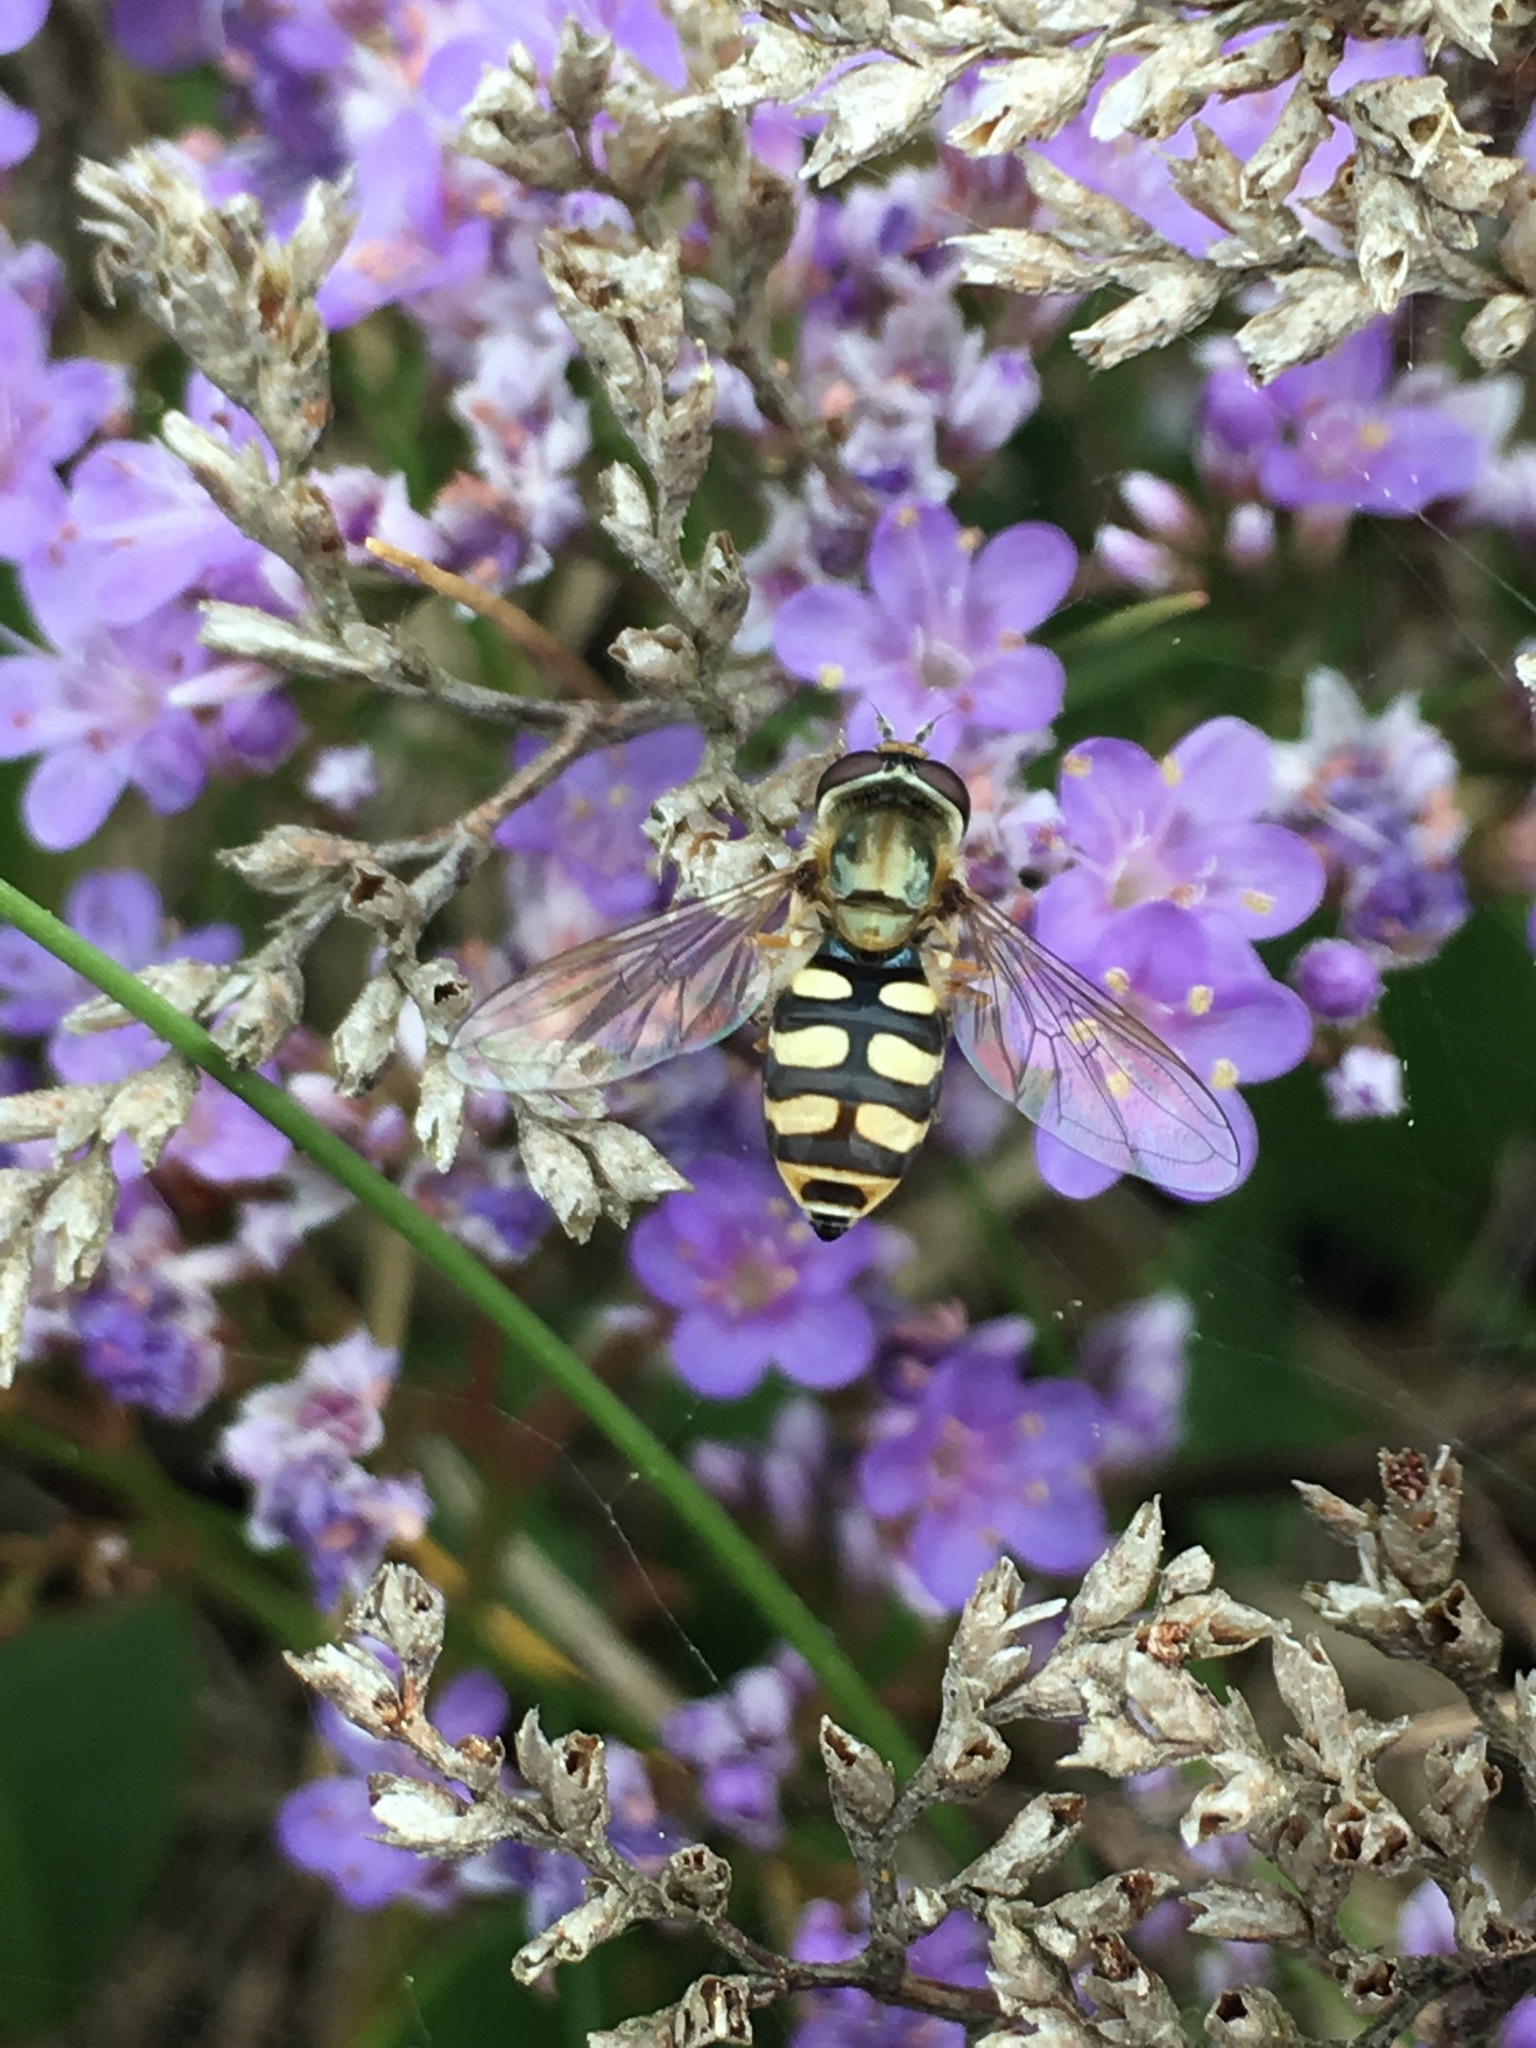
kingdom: Animalia
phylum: Arthropoda
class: Insecta
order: Diptera
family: Syrphidae
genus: Eupeodes
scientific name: Eupeodes corollae
